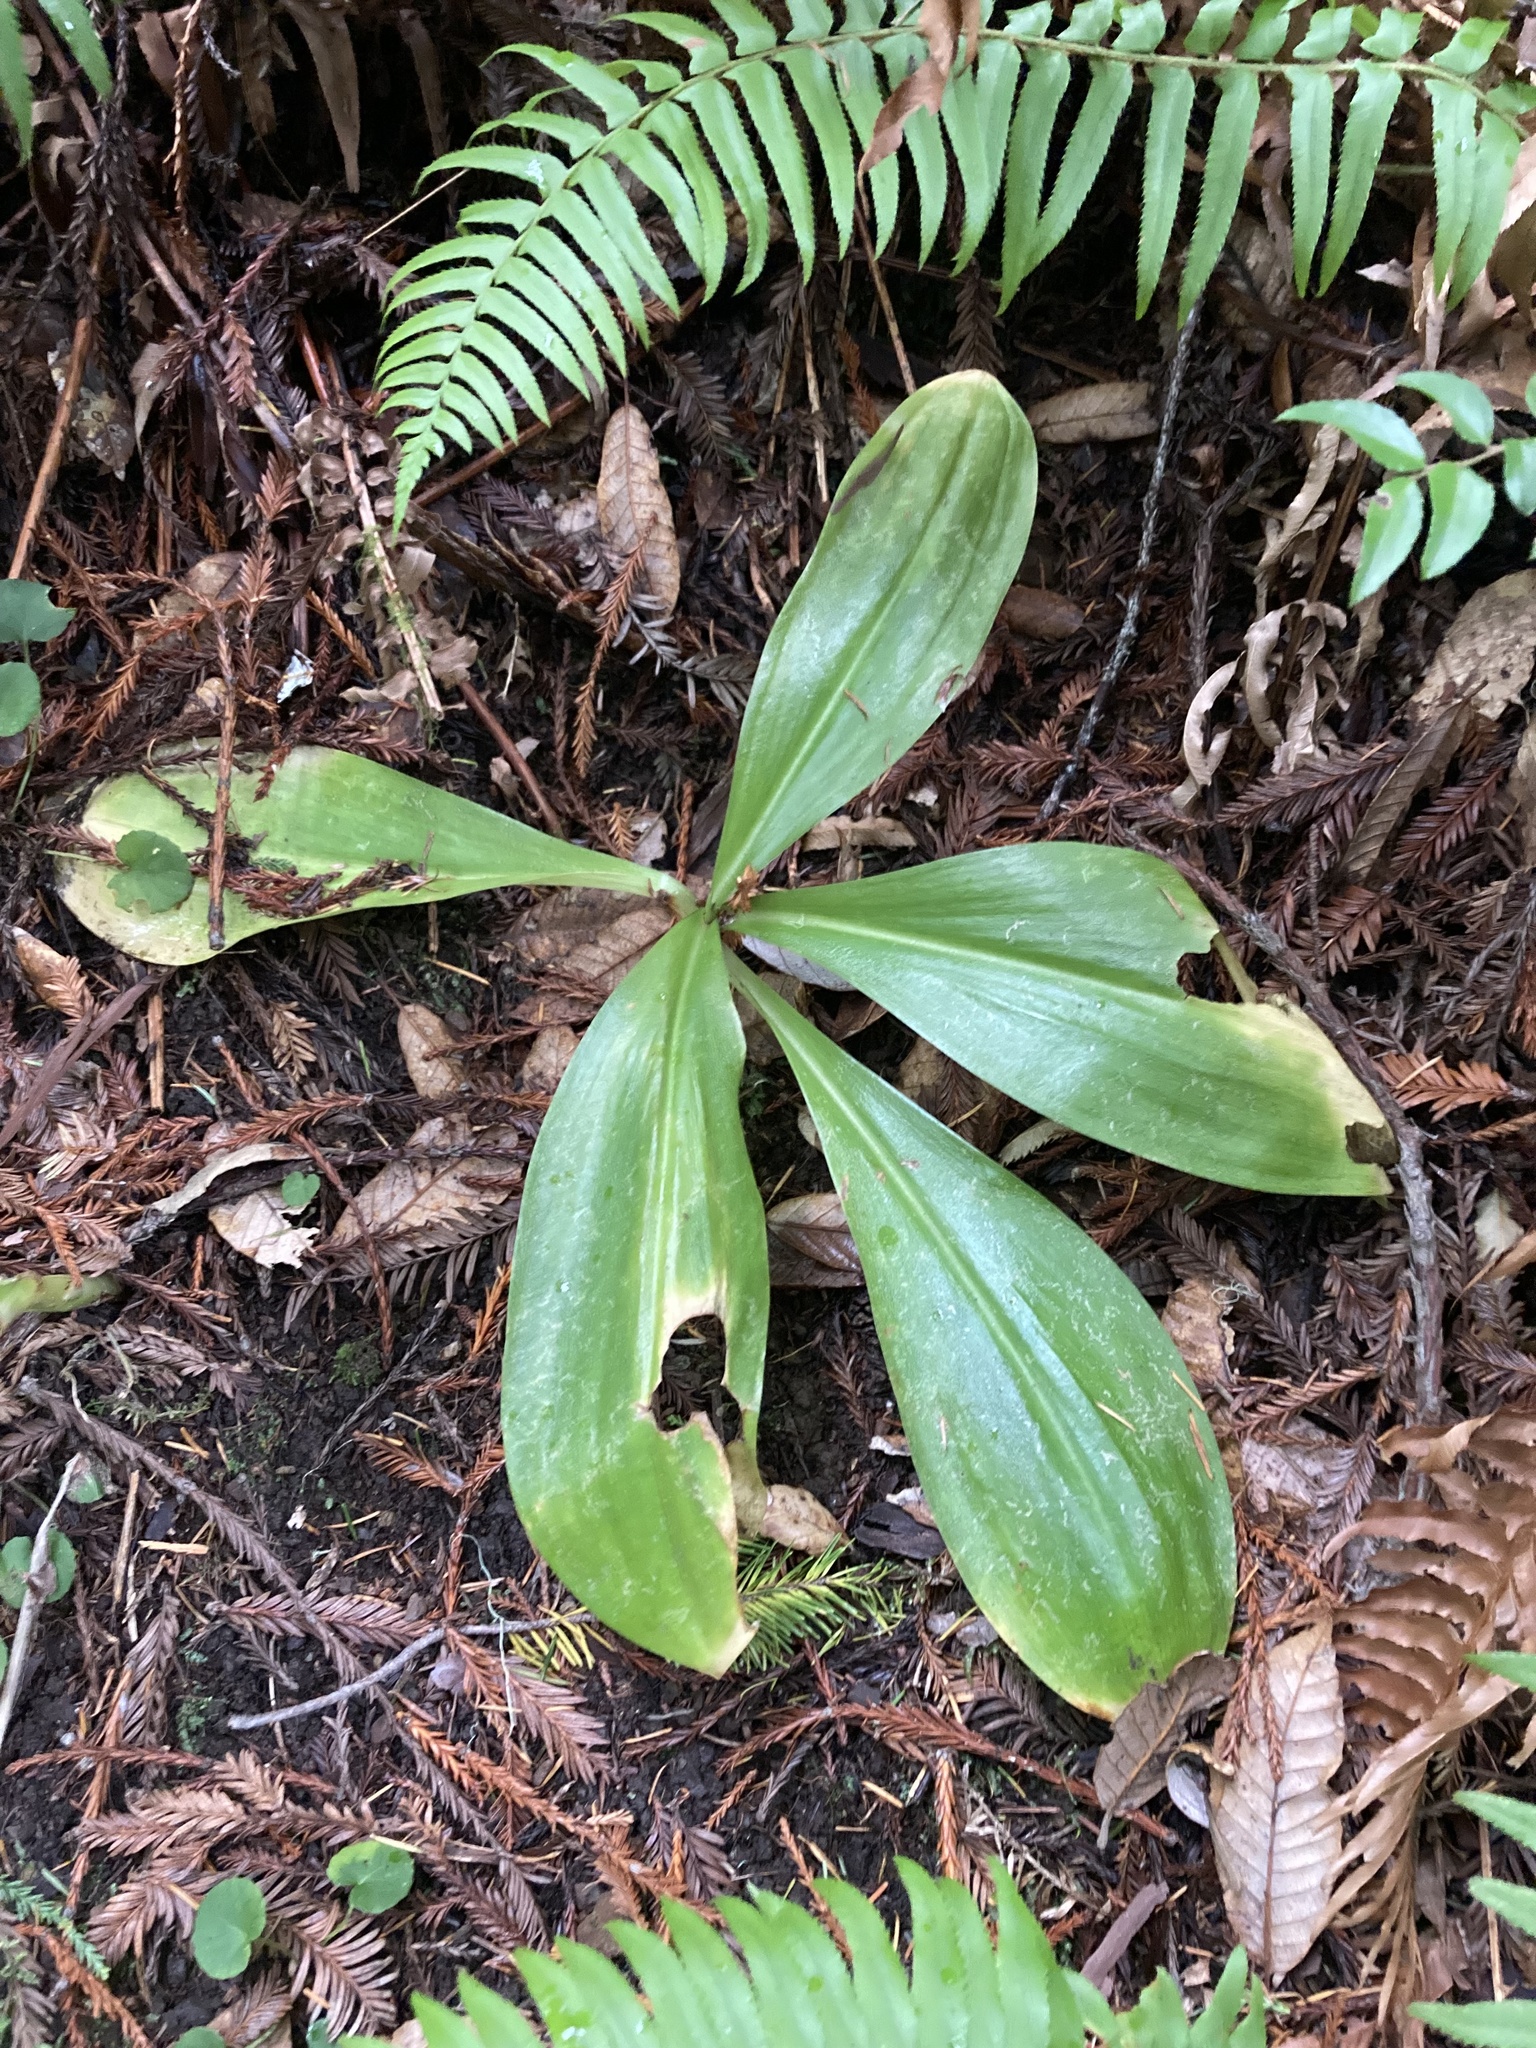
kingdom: Plantae
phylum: Tracheophyta
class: Liliopsida
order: Liliales
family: Liliaceae
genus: Clintonia
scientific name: Clintonia andrewsiana
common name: Red clintonia
